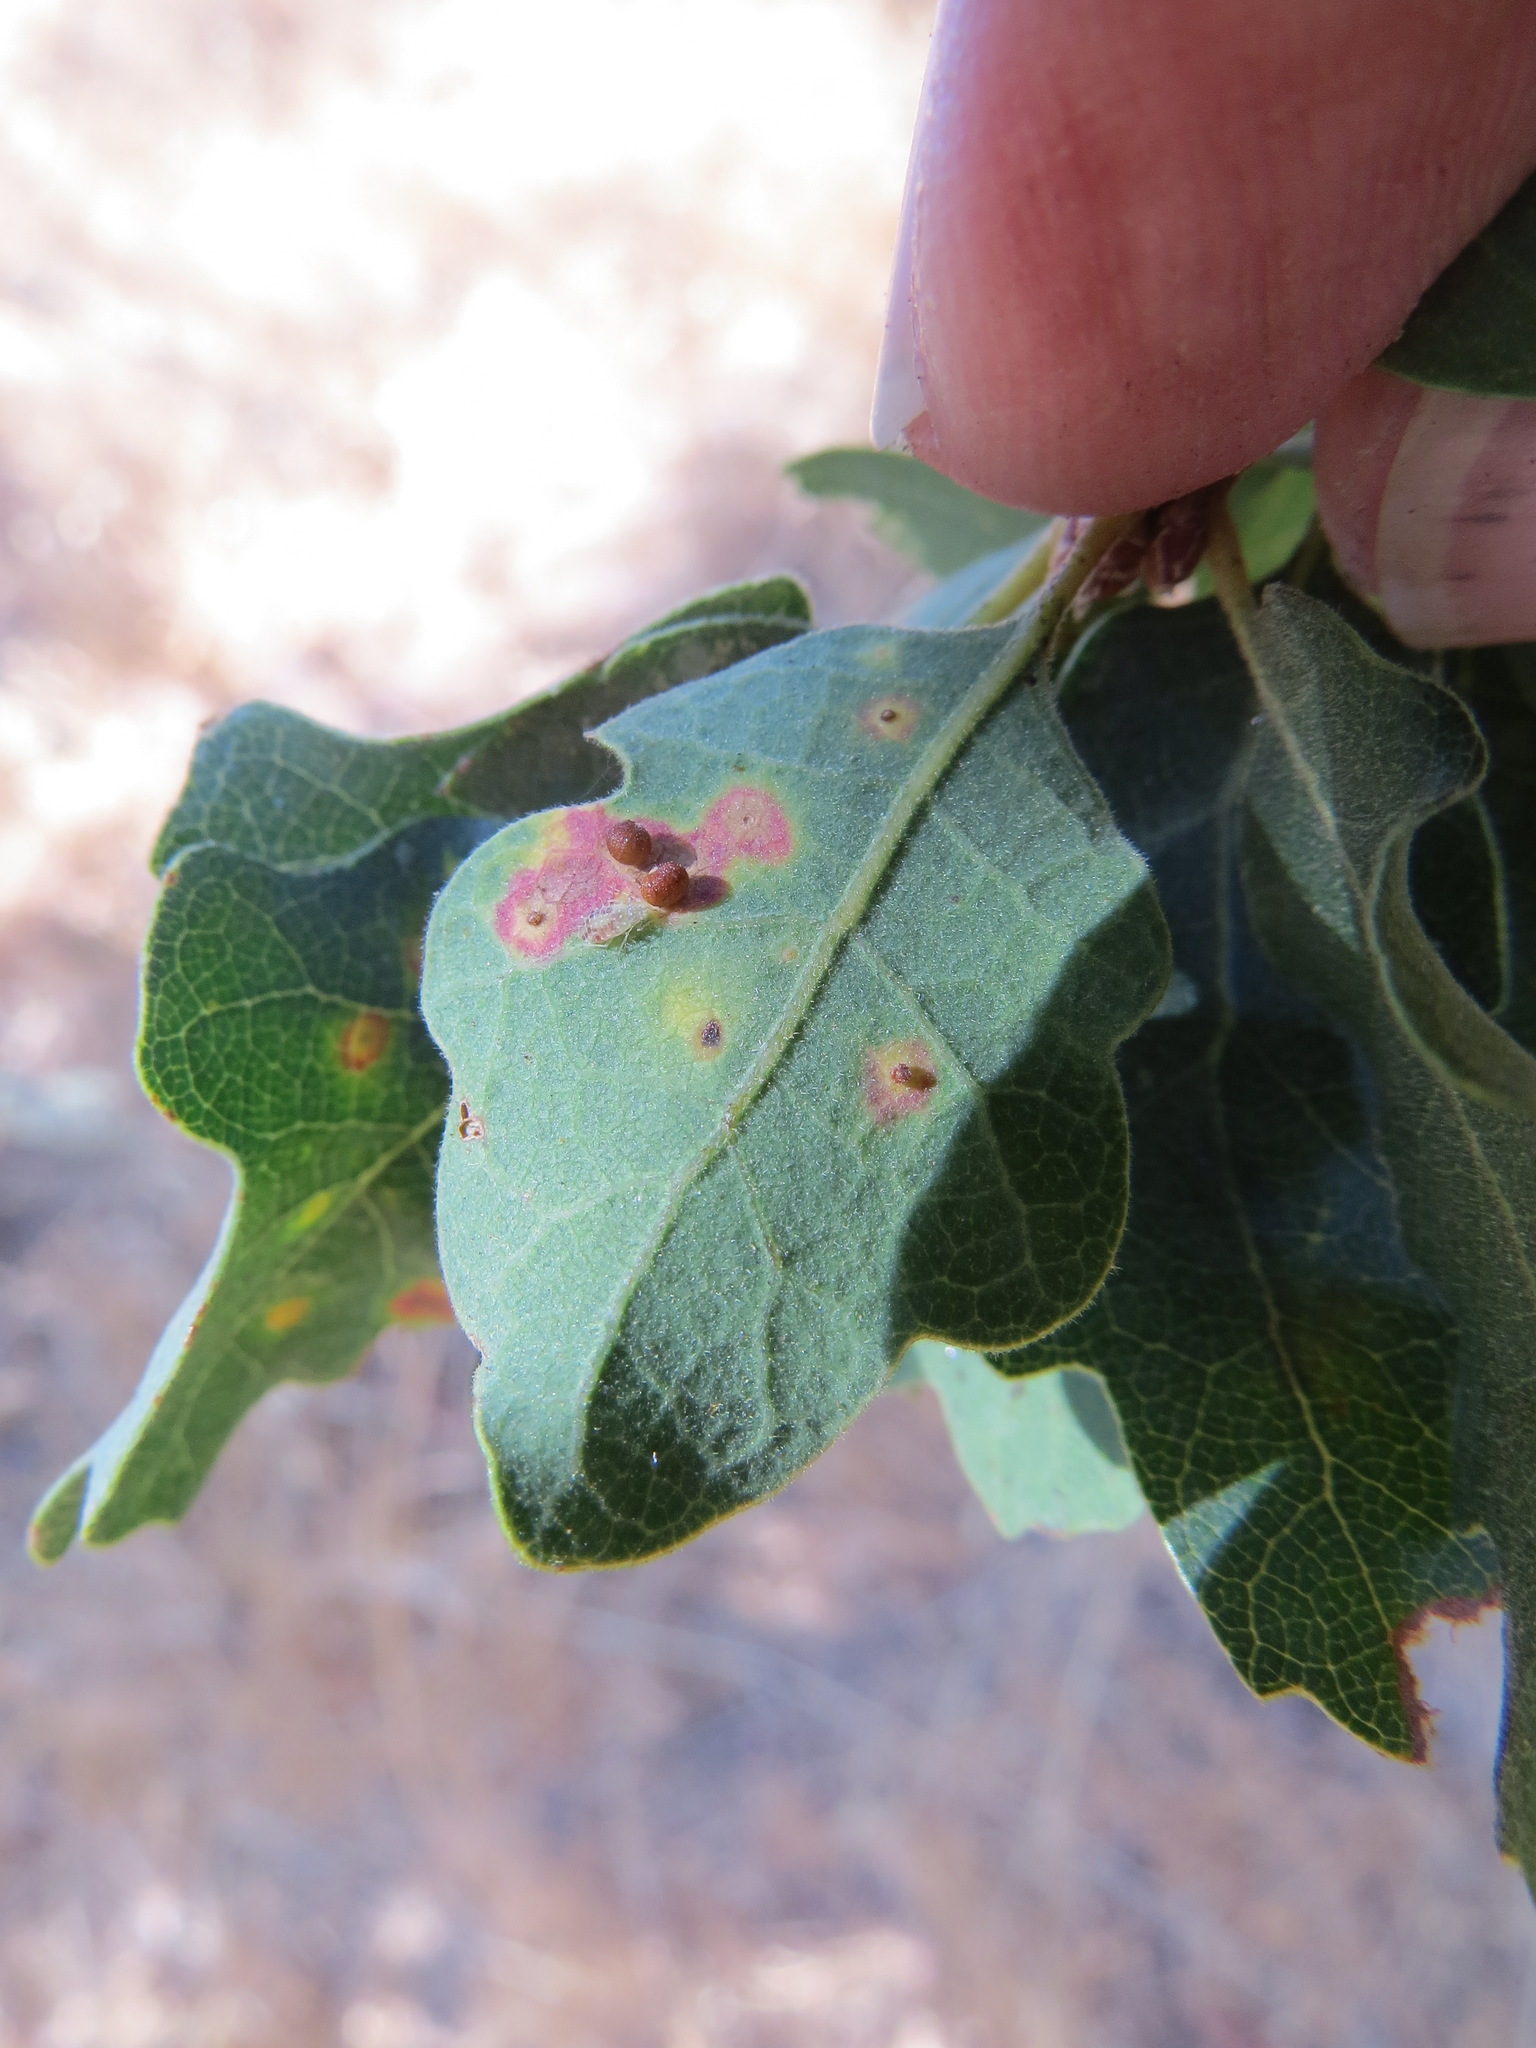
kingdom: Animalia
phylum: Arthropoda
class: Insecta
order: Hymenoptera
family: Cynipidae
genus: Neuroterus
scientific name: Neuroterus saltarius
